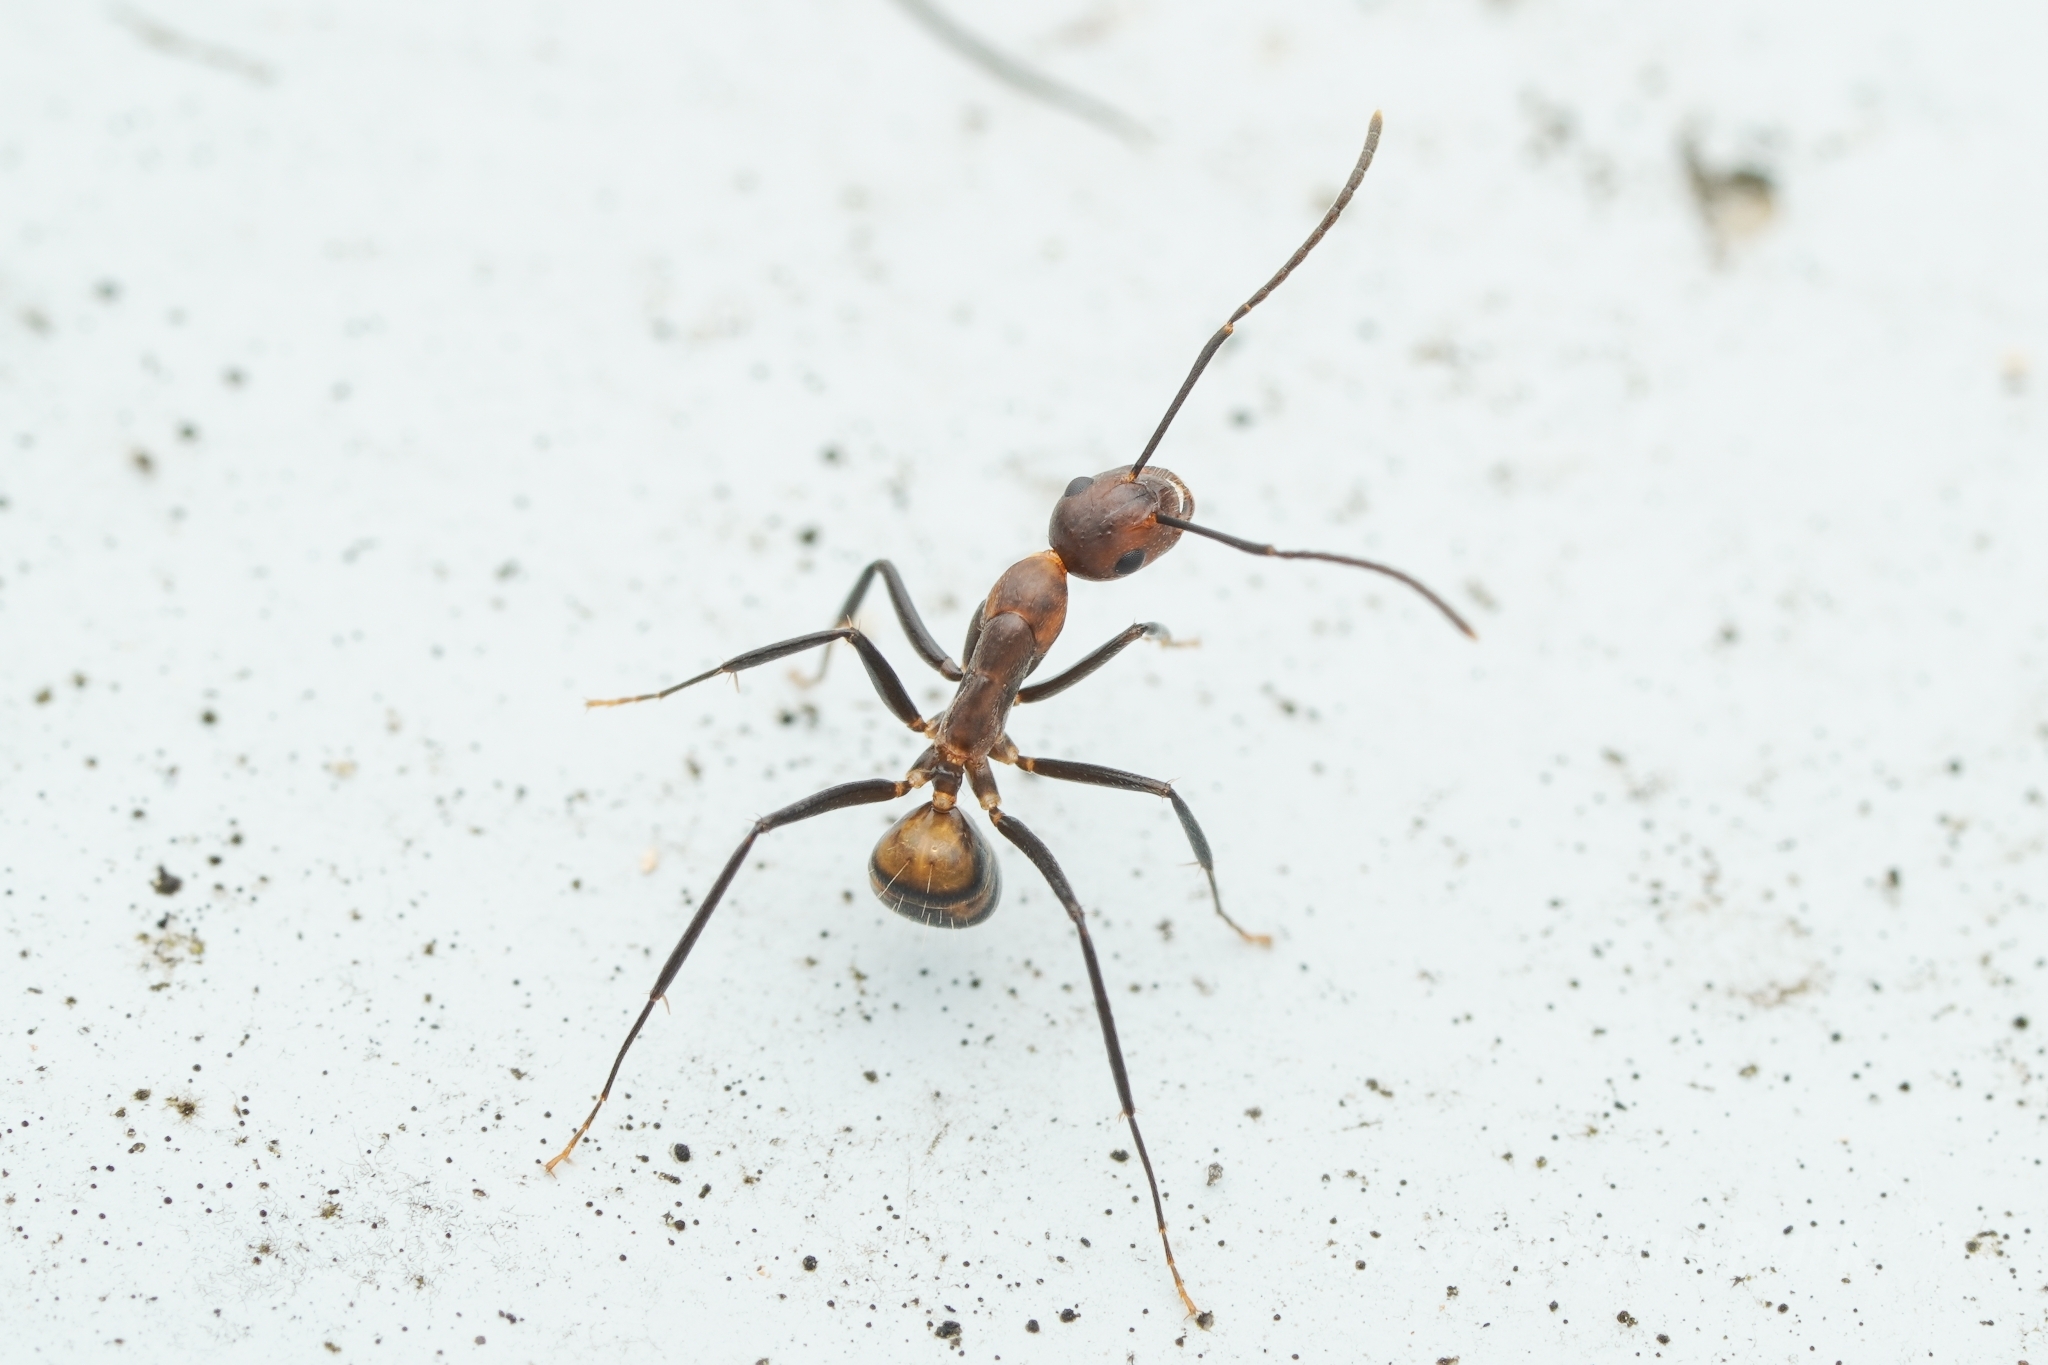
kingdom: Animalia
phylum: Arthropoda
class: Insecta
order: Hymenoptera
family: Formicidae
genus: Camponotus
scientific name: Camponotus nicobarensis
